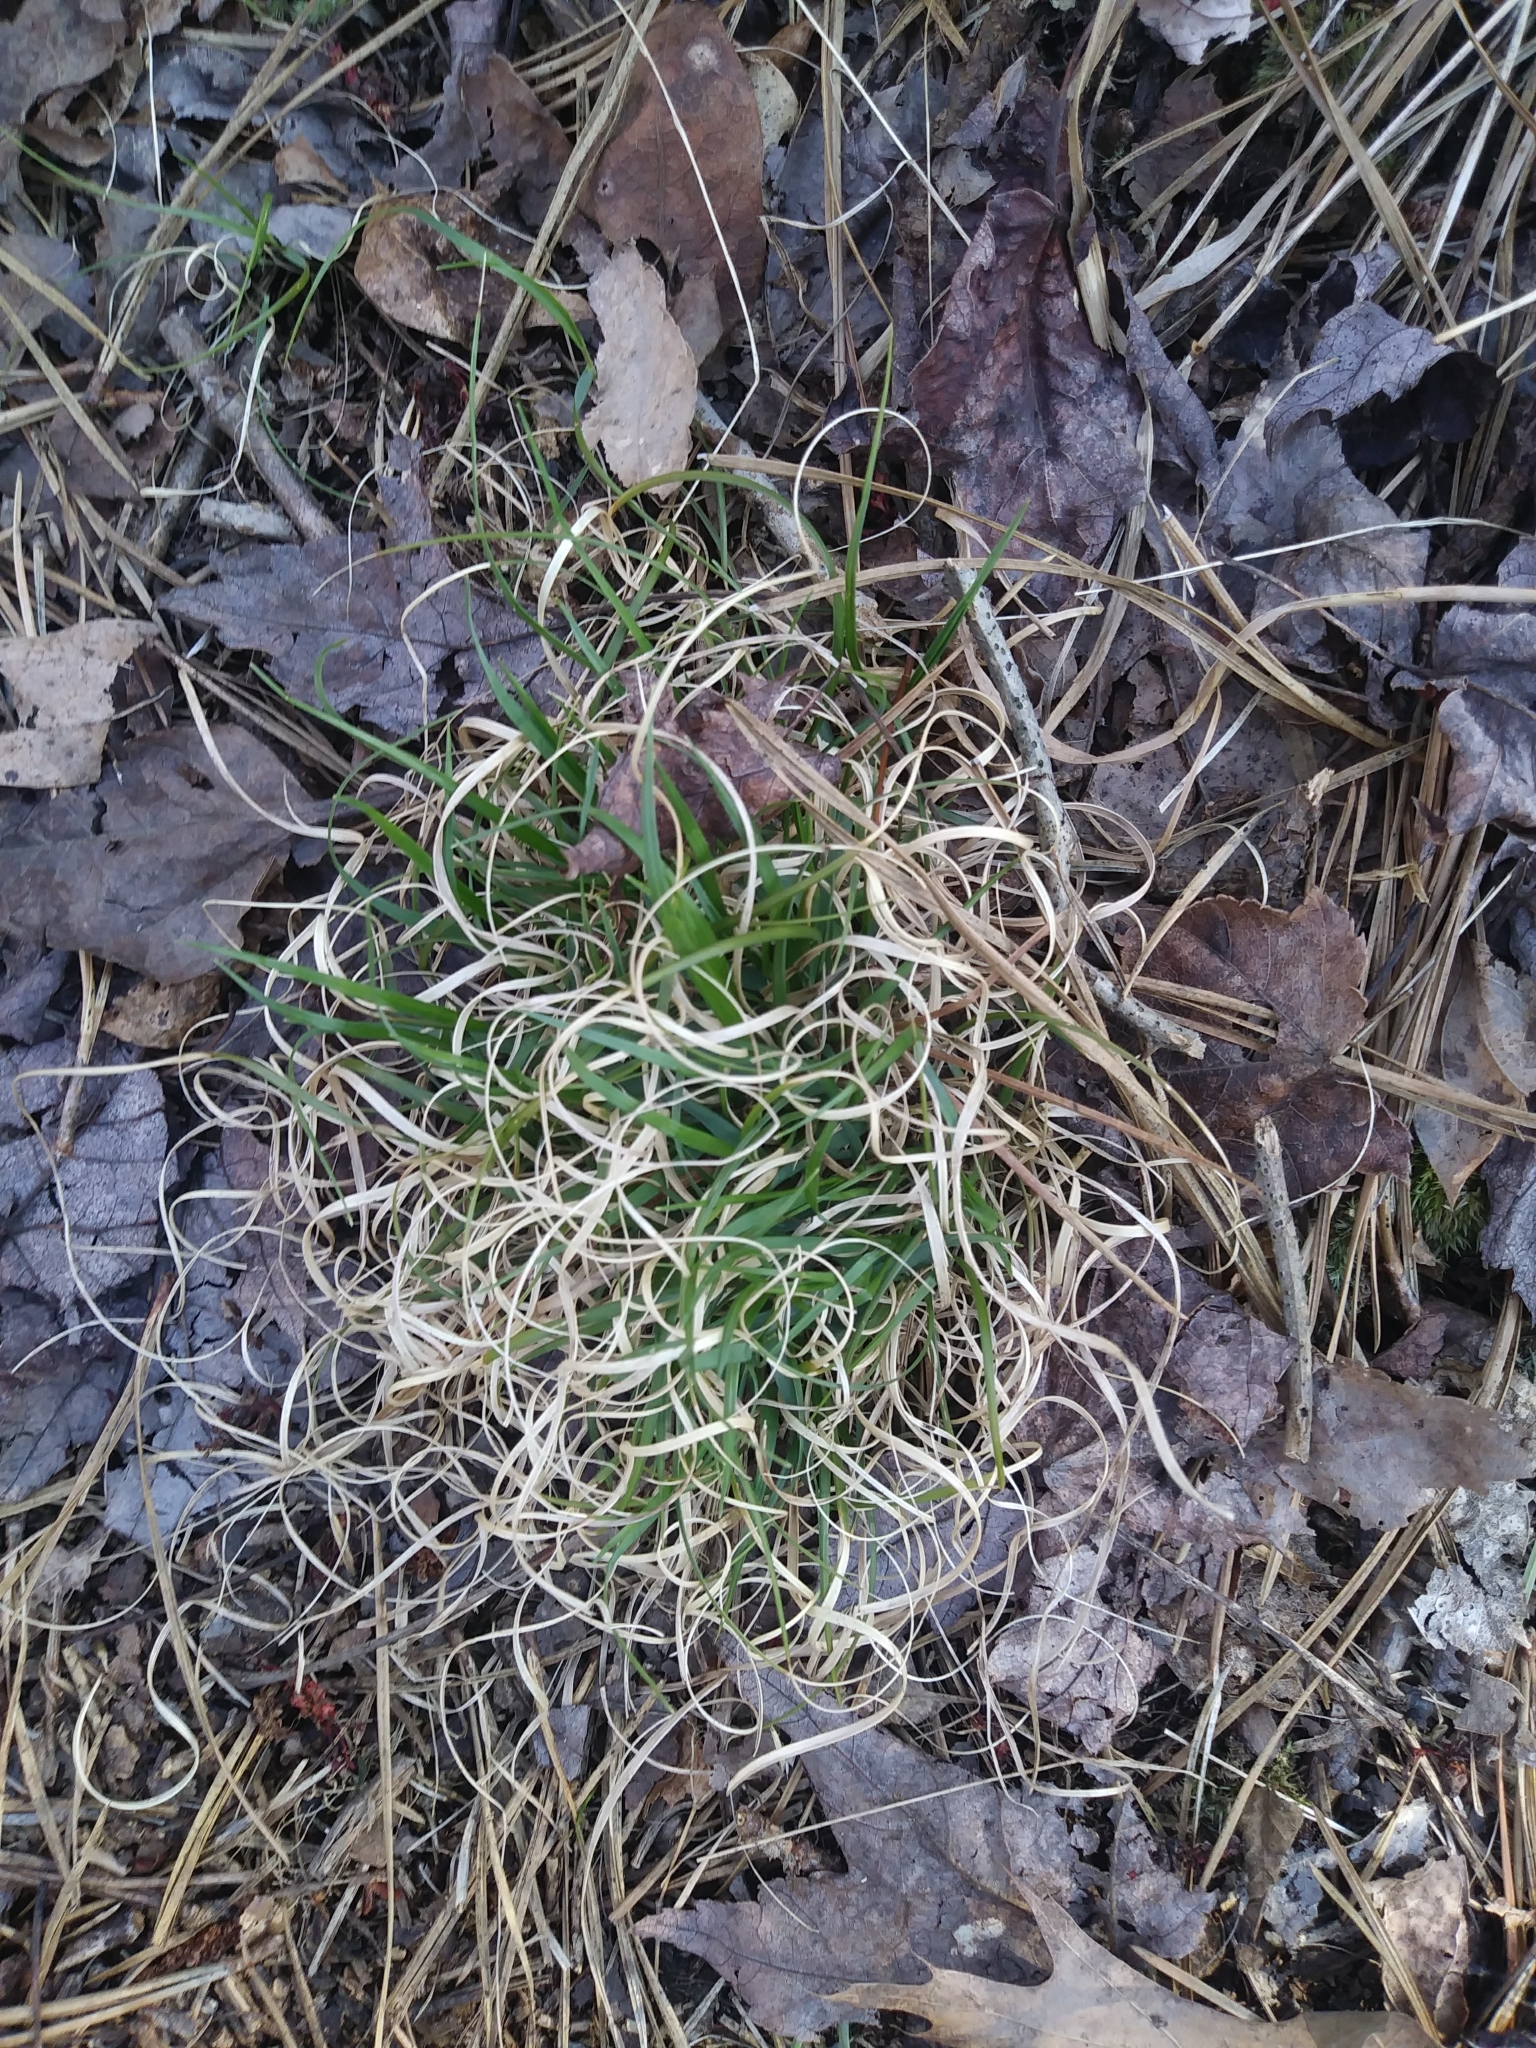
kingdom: Plantae
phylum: Tracheophyta
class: Liliopsida
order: Poales
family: Poaceae
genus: Danthonia
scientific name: Danthonia spicata
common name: Common wild oatgrass
